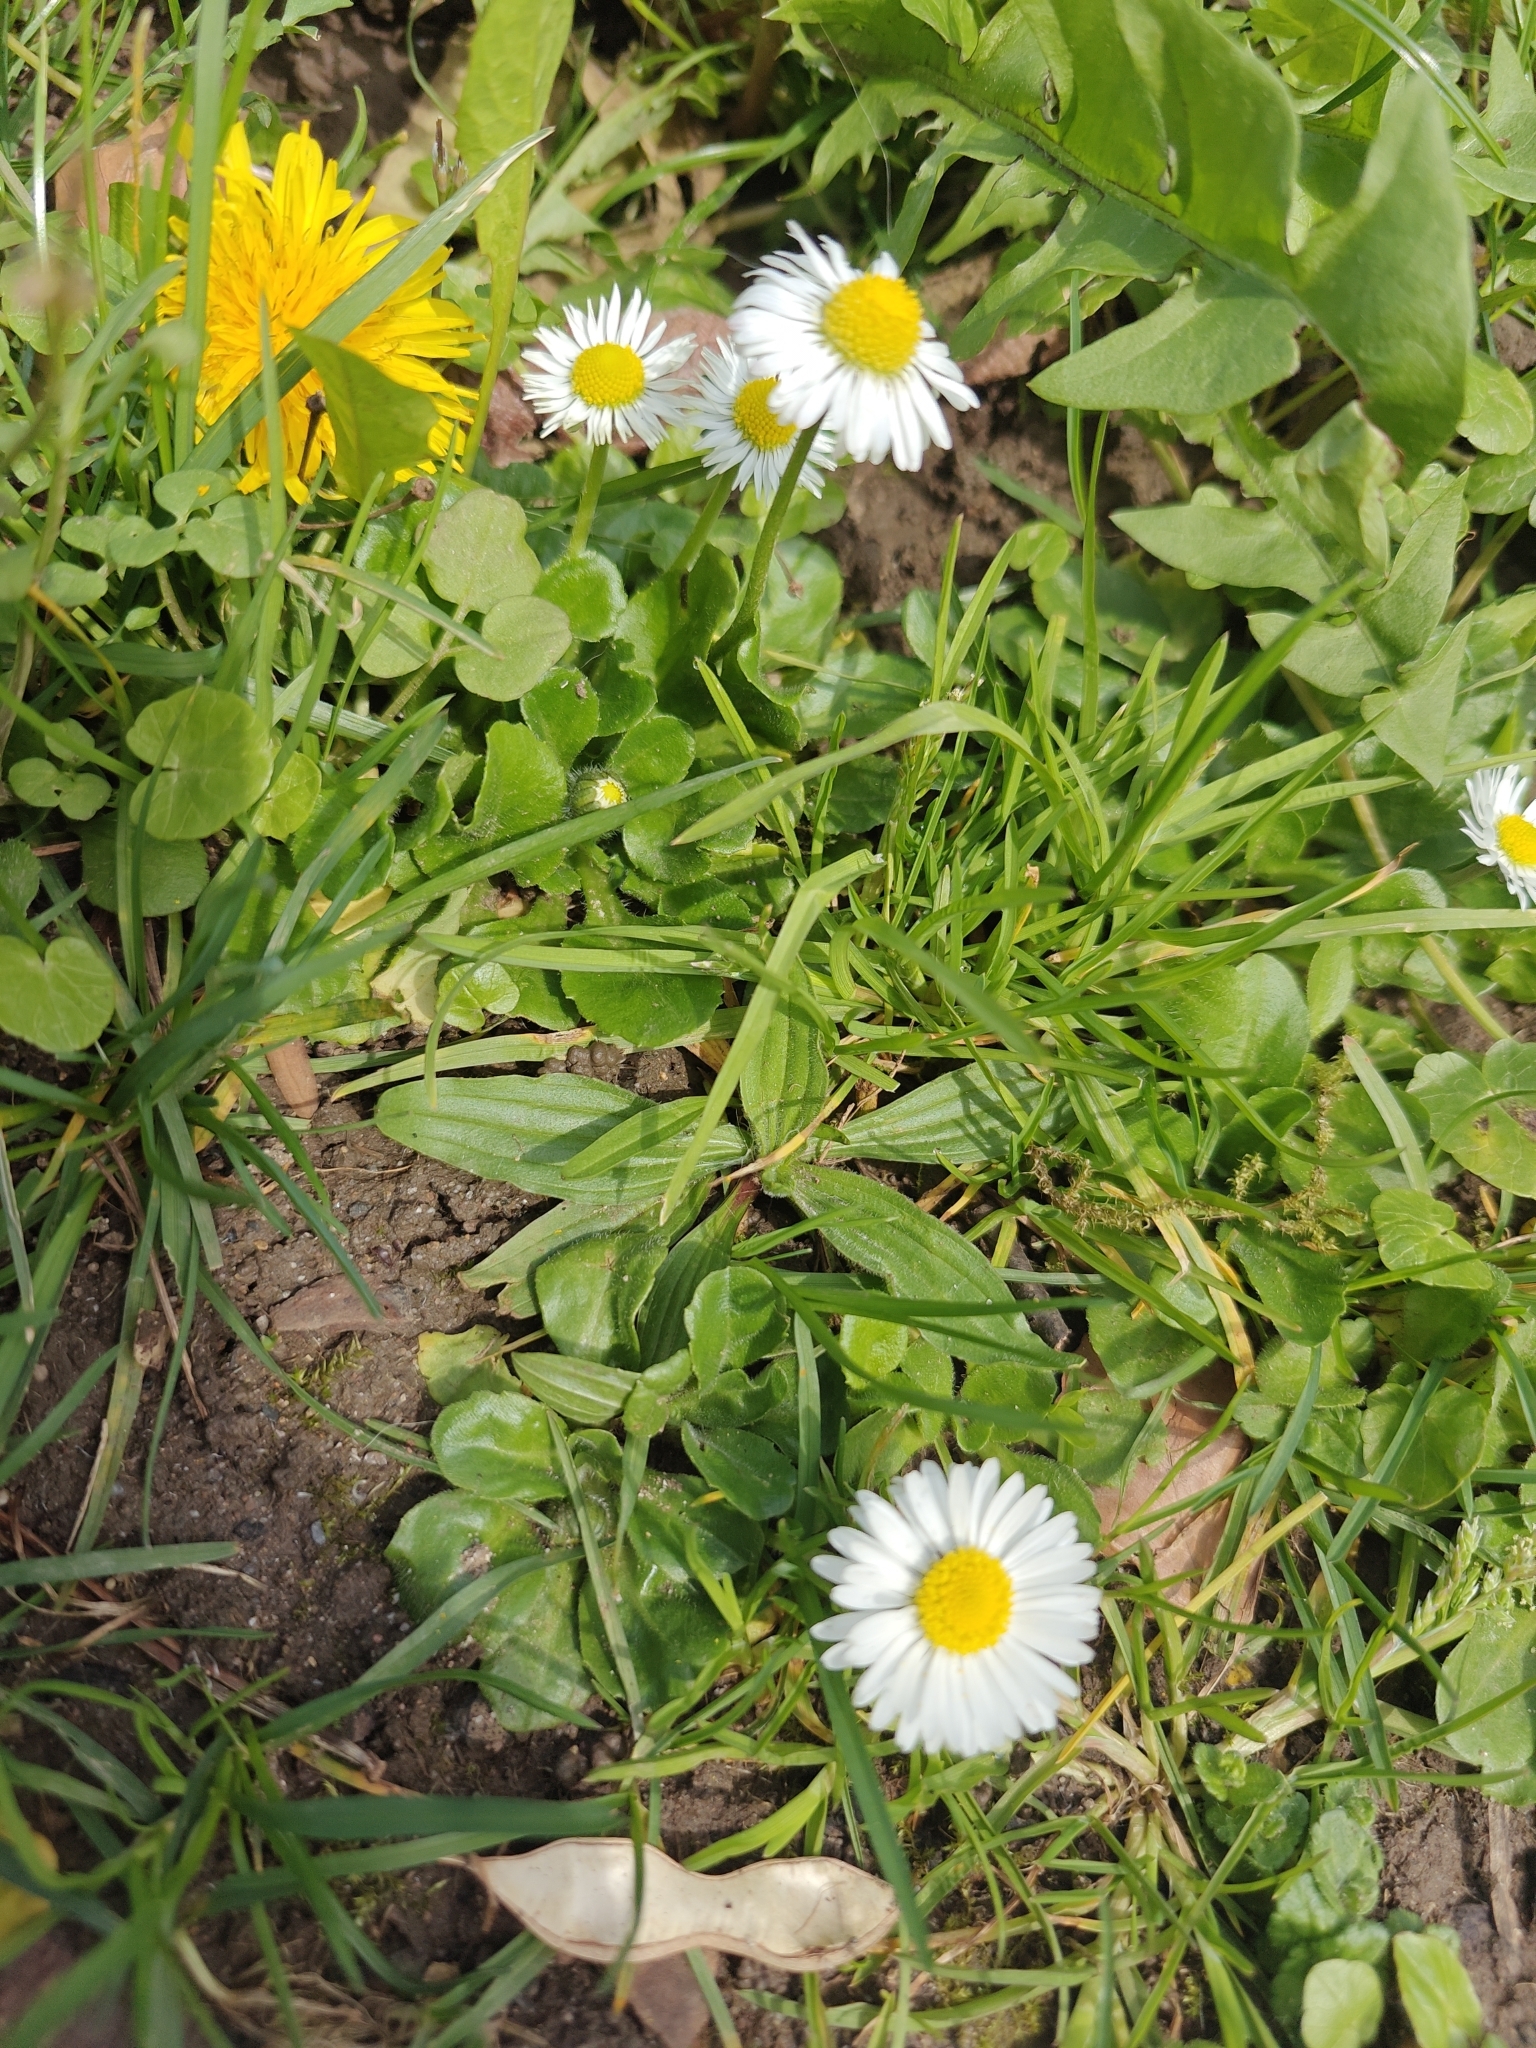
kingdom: Plantae
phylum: Tracheophyta
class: Magnoliopsida
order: Asterales
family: Asteraceae
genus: Bellis
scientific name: Bellis perennis
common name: Lawndaisy
